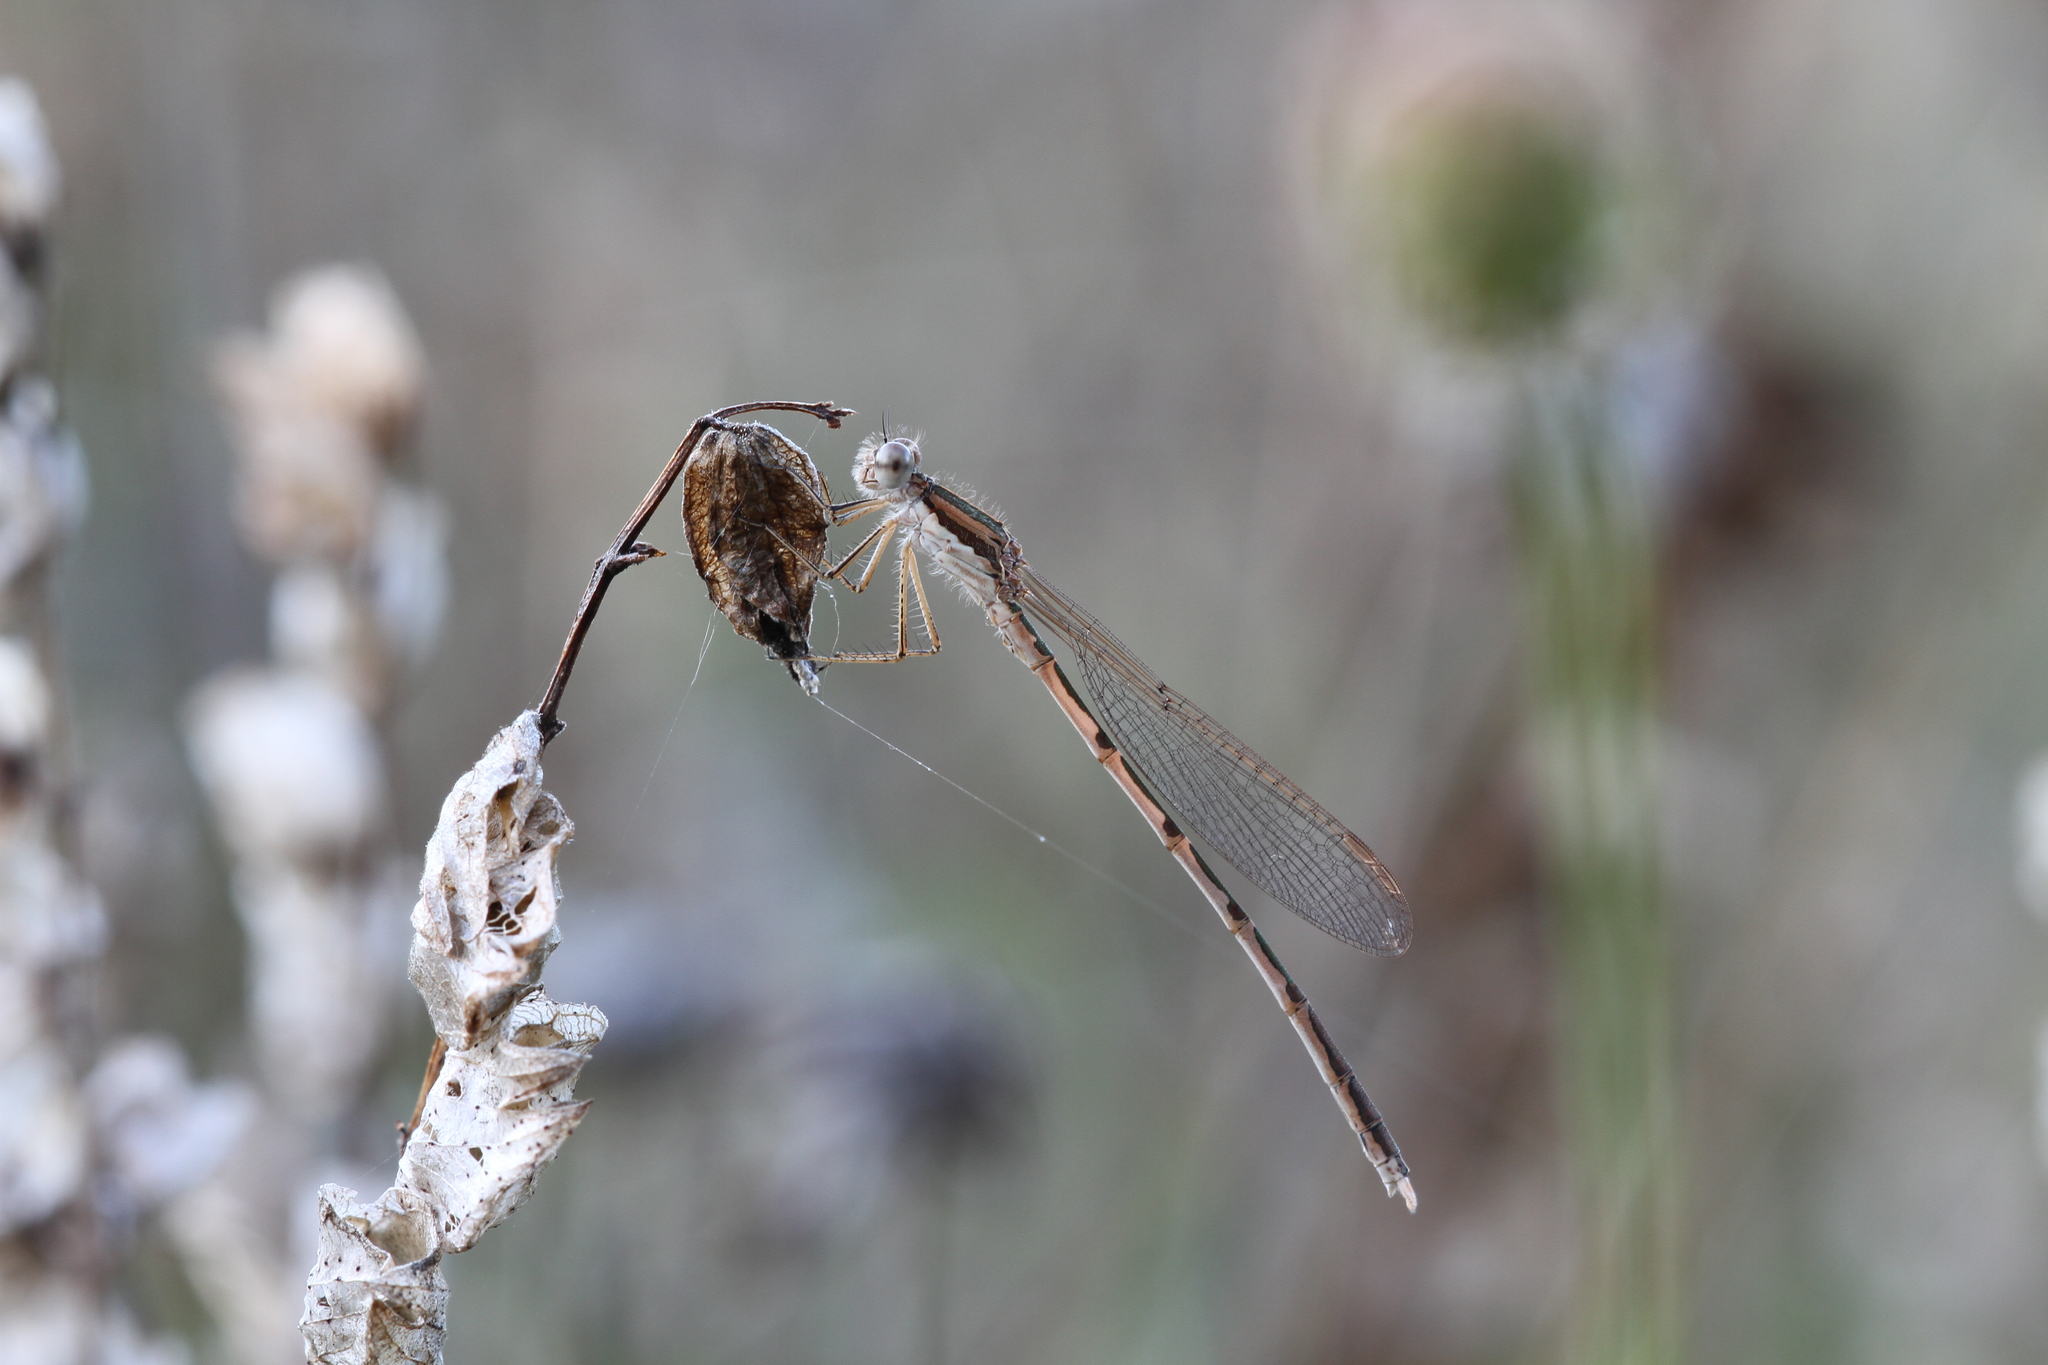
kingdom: Animalia
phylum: Arthropoda
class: Insecta
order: Odonata
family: Lestidae
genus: Sympecma
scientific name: Sympecma fusca
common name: Common winter damsel
